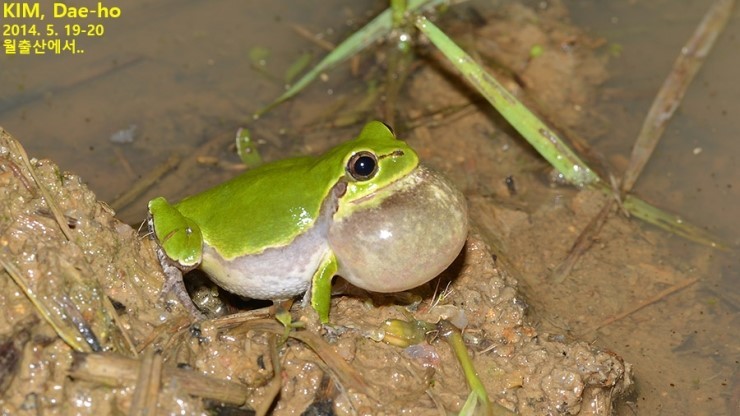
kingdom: Animalia
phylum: Chordata
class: Amphibia
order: Anura
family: Hylidae
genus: Dryophytes
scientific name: Dryophytes japonicus
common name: Japanese treefrog
